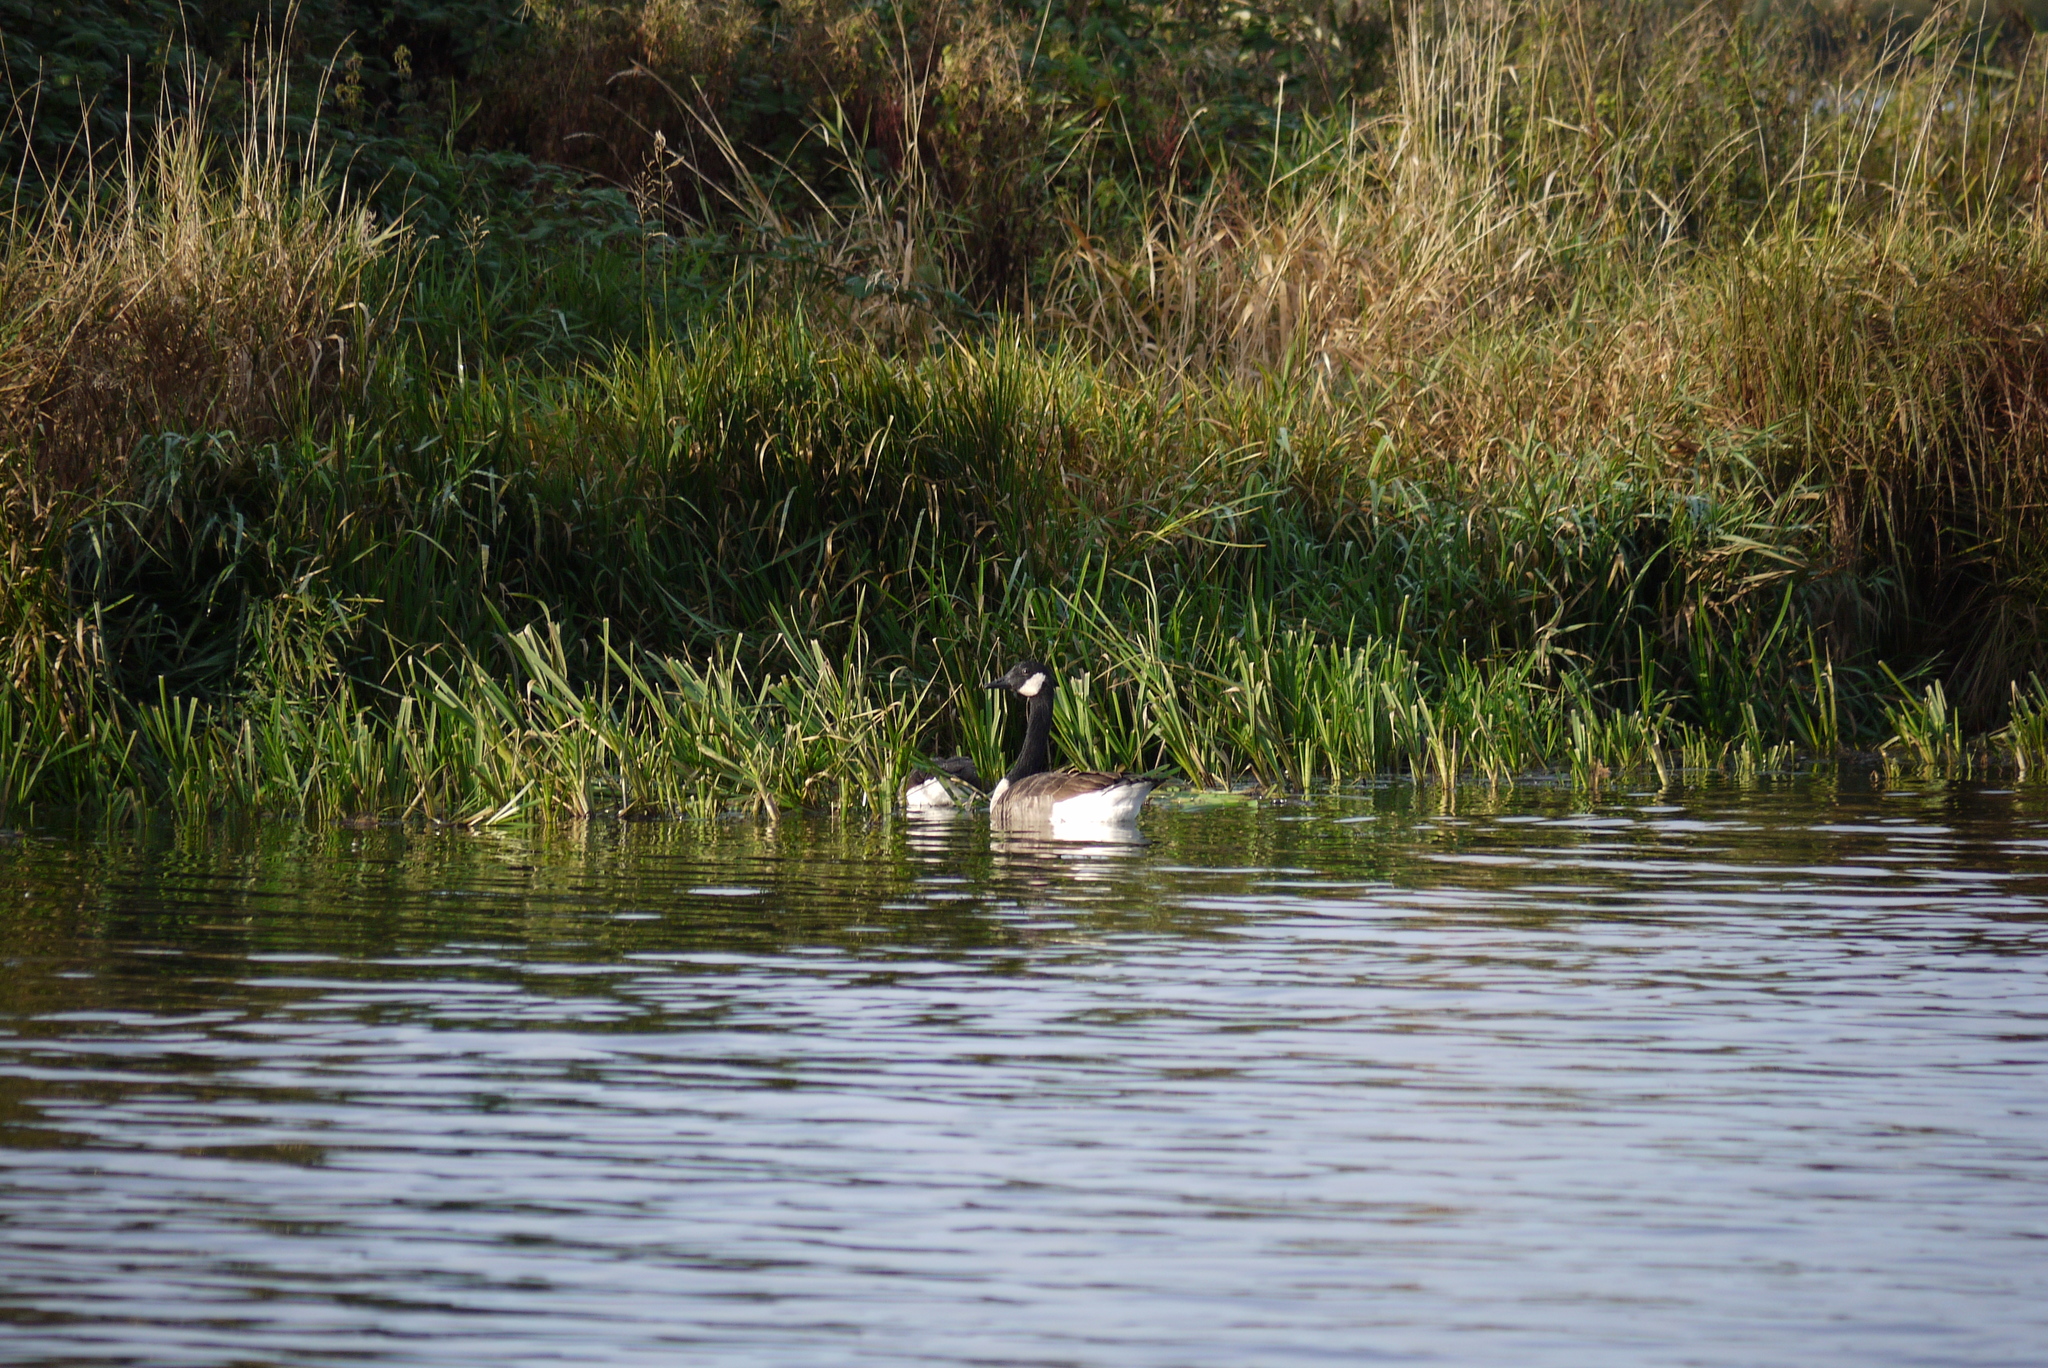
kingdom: Animalia
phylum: Chordata
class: Aves
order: Anseriformes
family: Anatidae
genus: Branta
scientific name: Branta canadensis
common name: Canada goose
